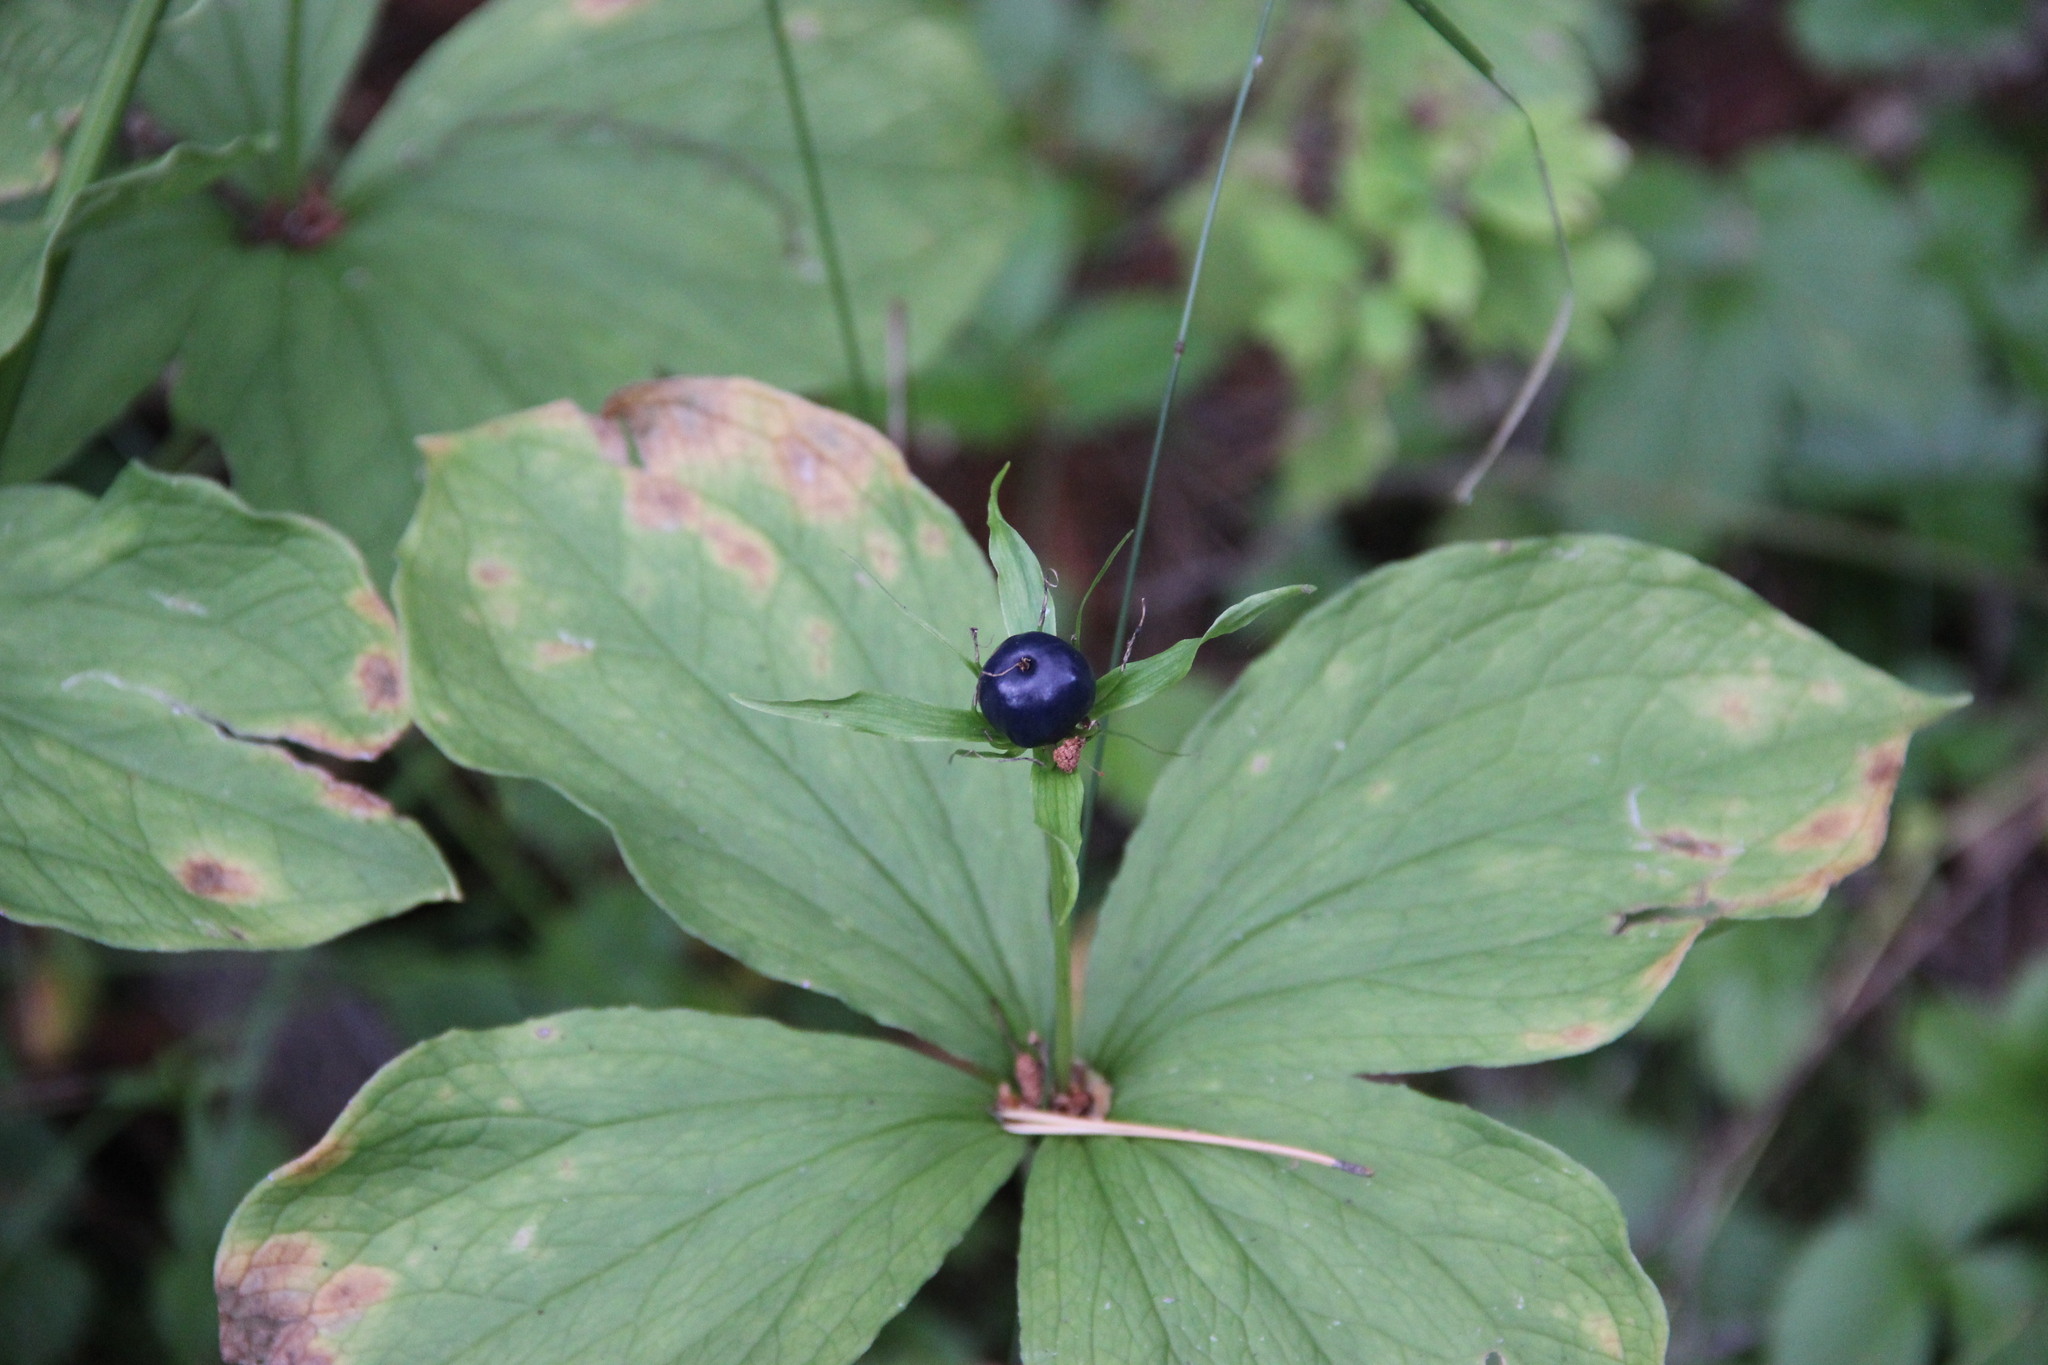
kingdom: Plantae
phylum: Tracheophyta
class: Liliopsida
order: Liliales
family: Melanthiaceae
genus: Paris
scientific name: Paris quadrifolia
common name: Herb-paris
